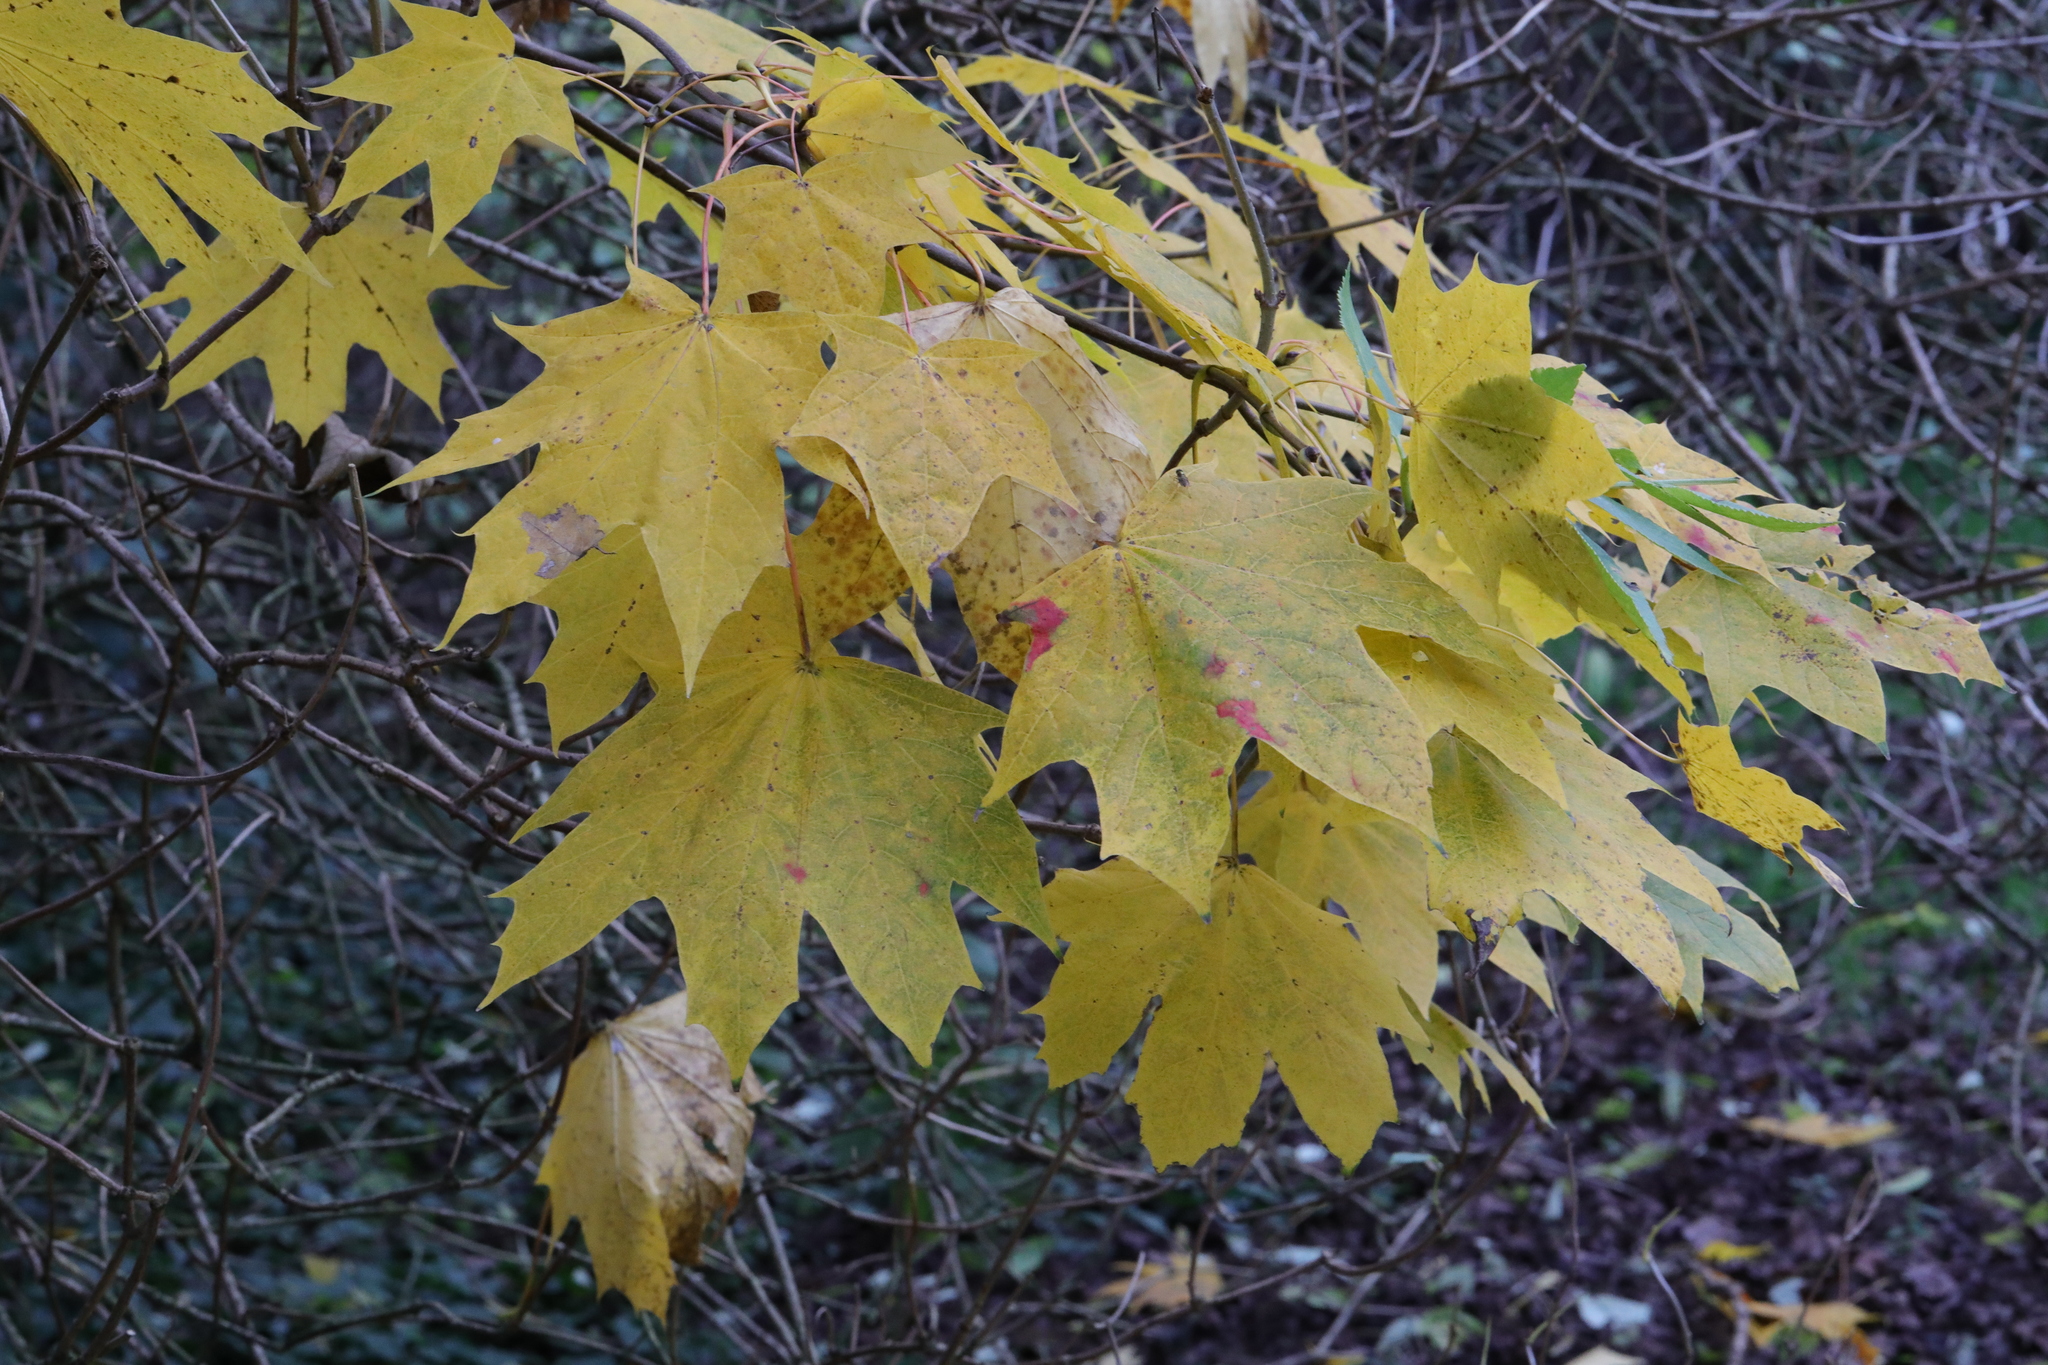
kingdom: Plantae
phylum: Tracheophyta
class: Magnoliopsida
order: Sapindales
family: Sapindaceae
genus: Acer
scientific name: Acer platanoides
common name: Norway maple
